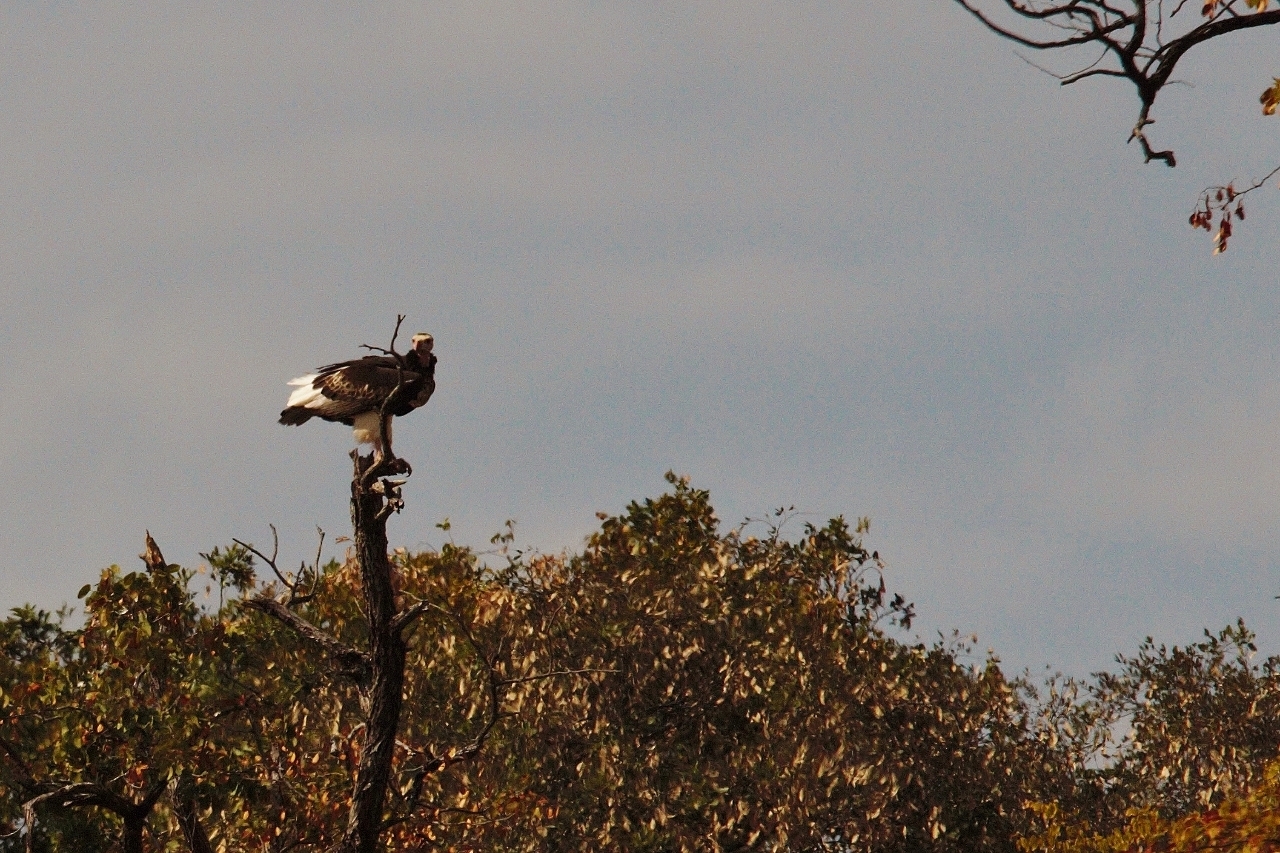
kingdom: Animalia
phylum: Chordata
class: Aves
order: Accipitriformes
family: Accipitridae
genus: Trigonoceps
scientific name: Trigonoceps occipitalis
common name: White-headed vulture
